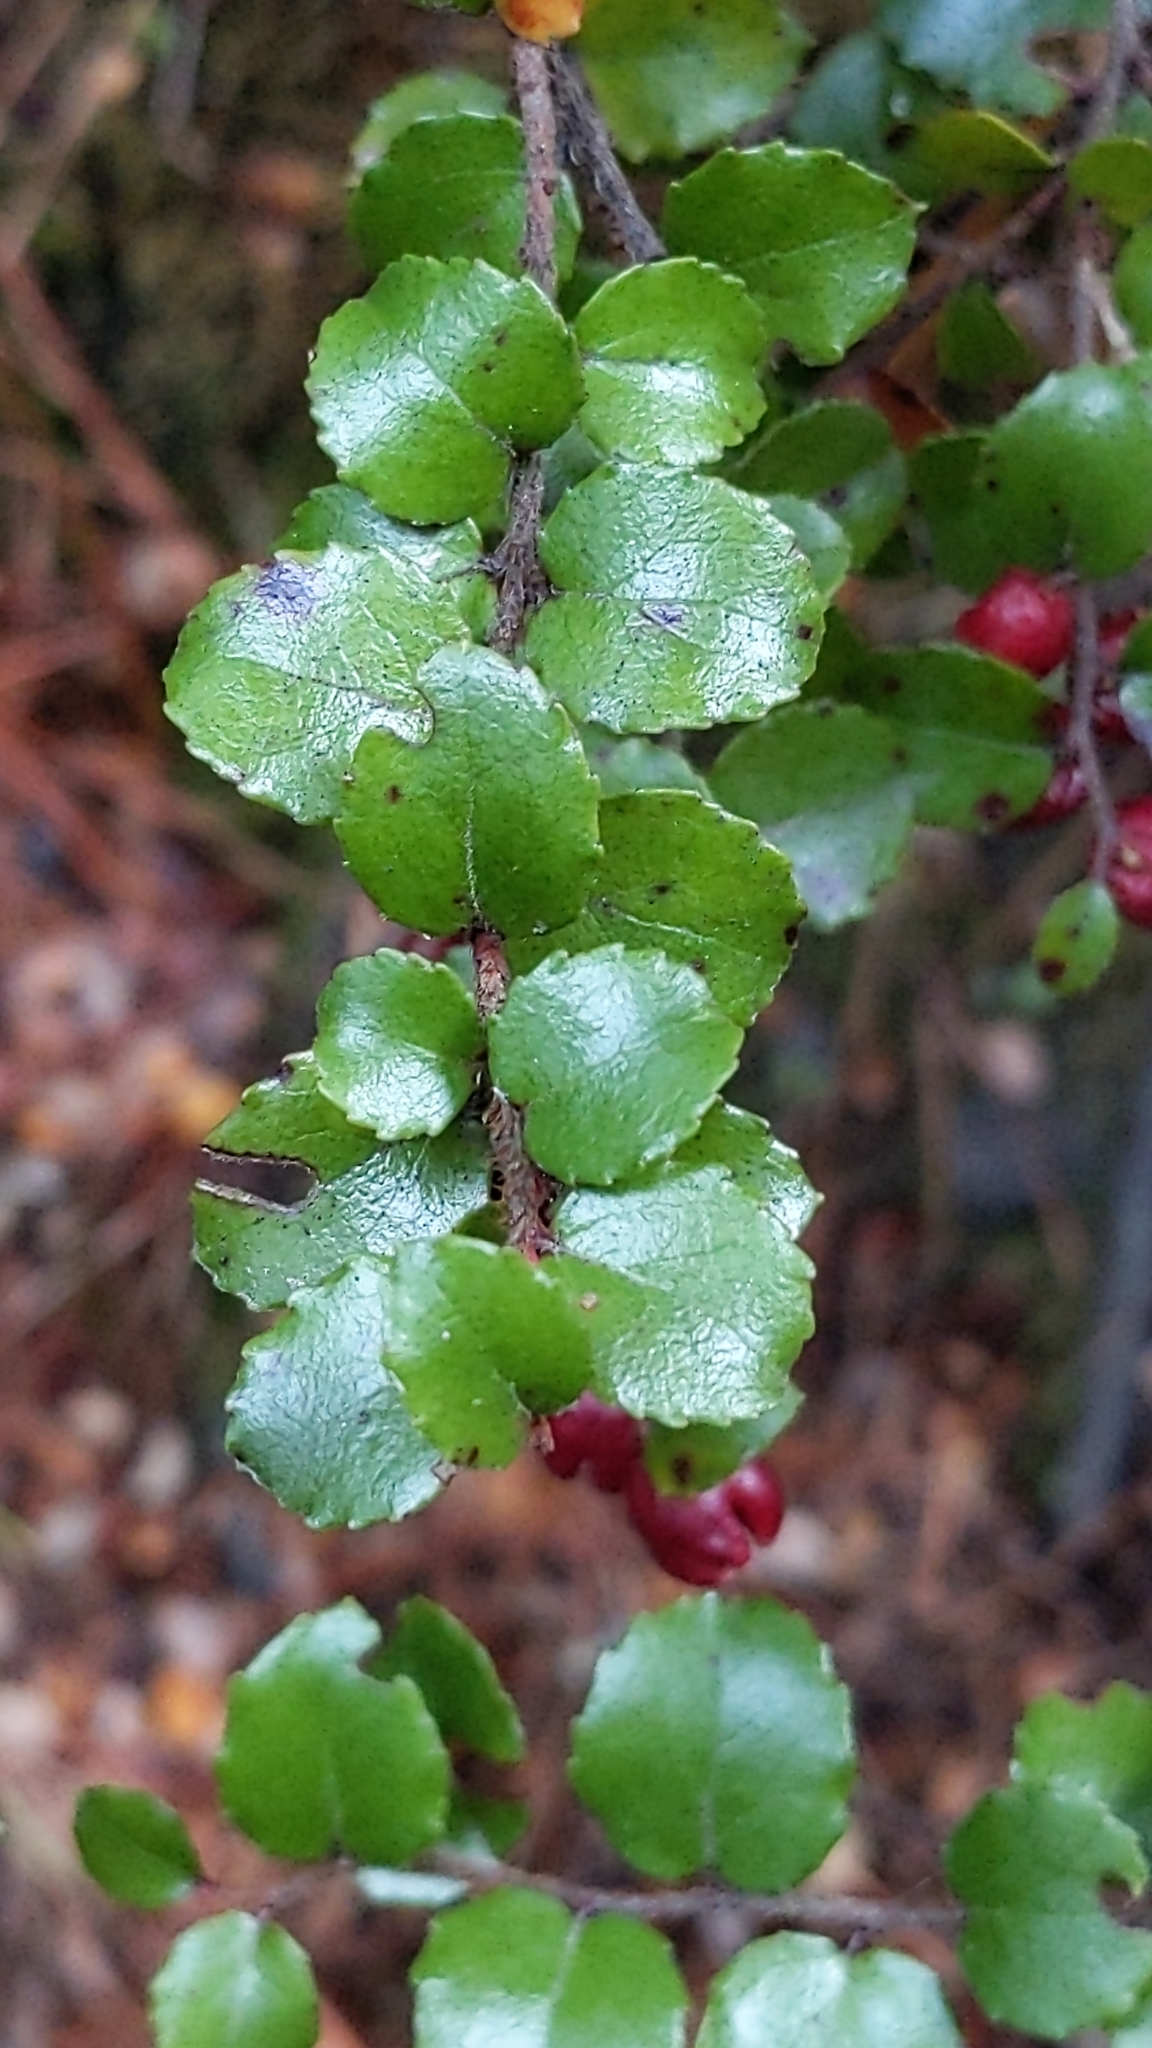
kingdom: Plantae
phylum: Tracheophyta
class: Magnoliopsida
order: Ericales
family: Ericaceae
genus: Gaultheria
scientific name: Gaultheria antipoda
